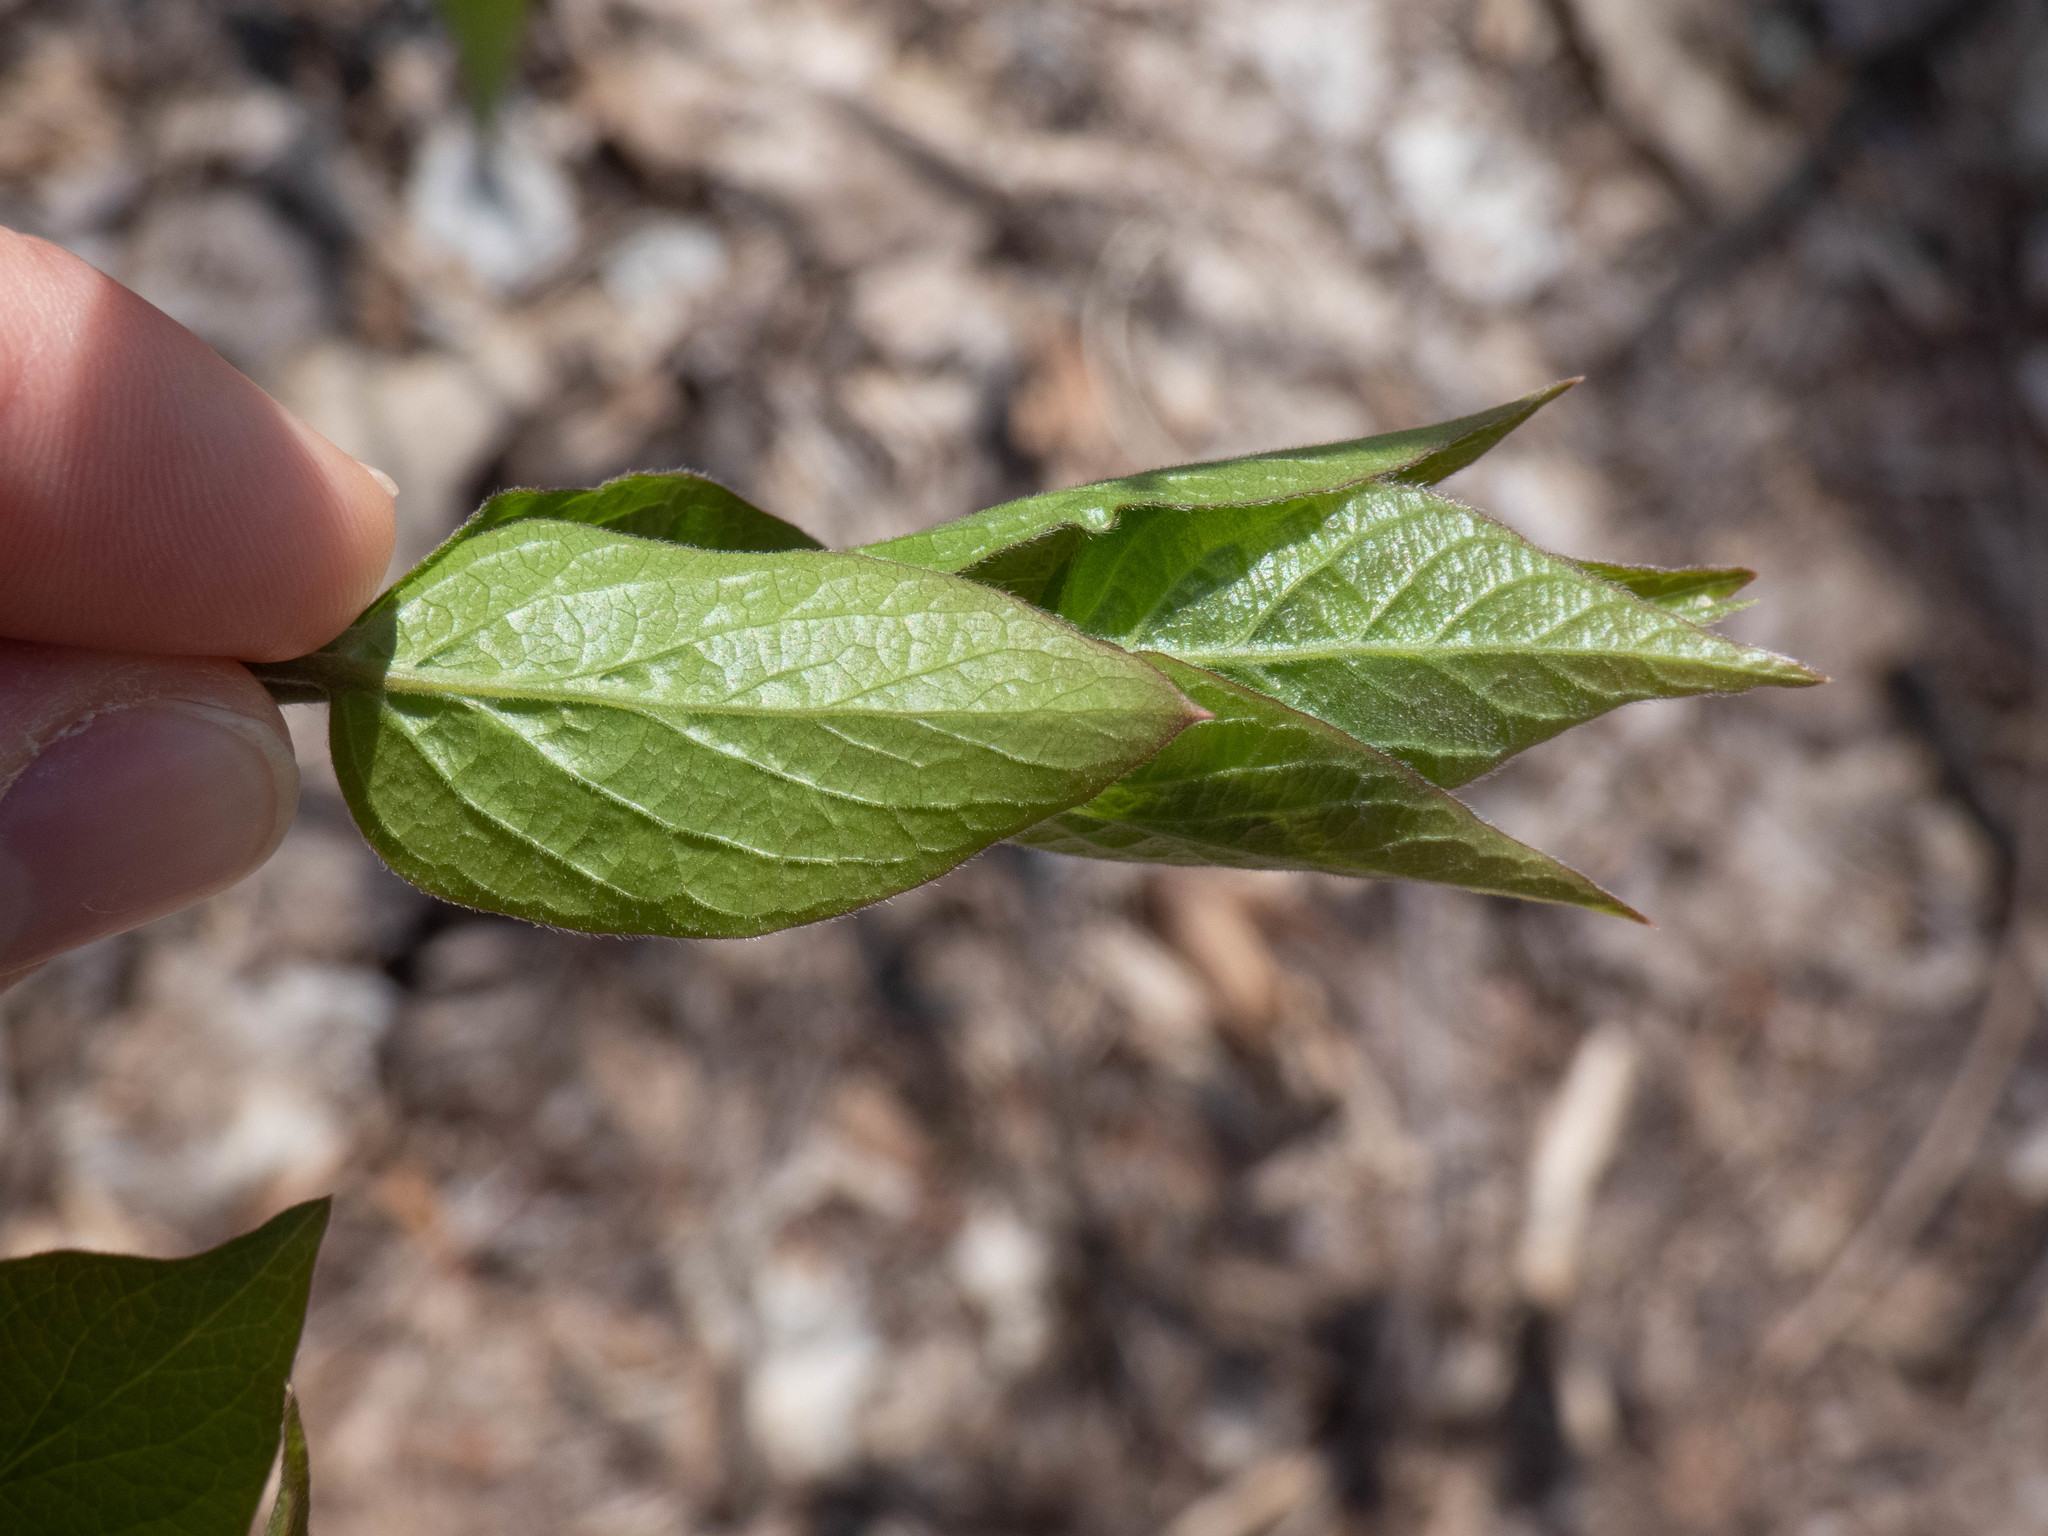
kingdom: Plantae
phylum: Tracheophyta
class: Magnoliopsida
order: Dipsacales
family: Caprifoliaceae
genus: Lonicera
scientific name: Lonicera maackii
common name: Amur honeysuckle
